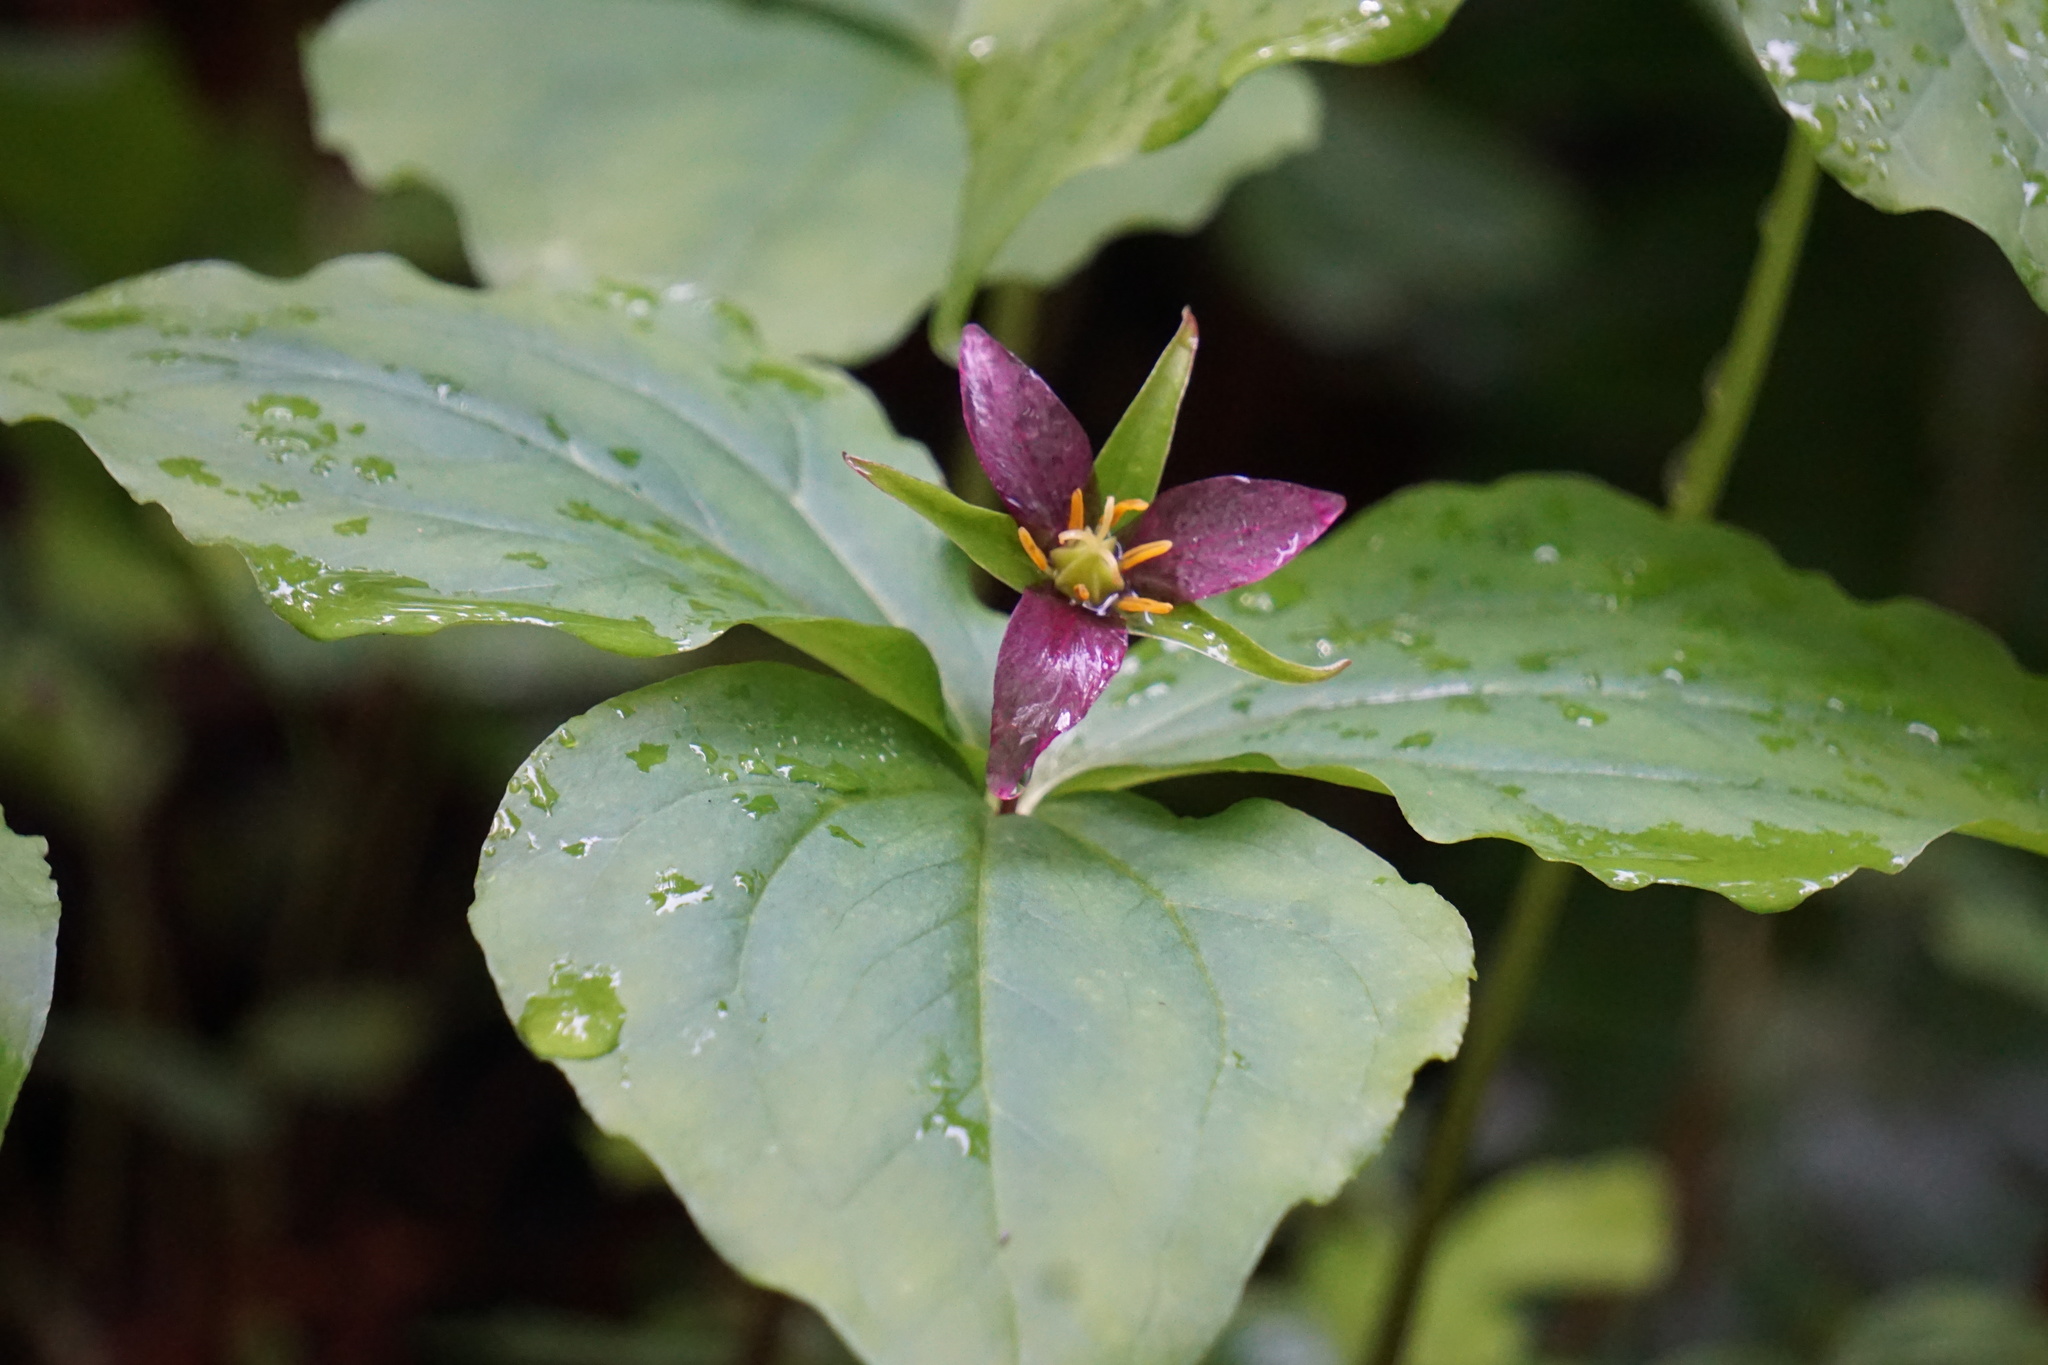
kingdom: Plantae
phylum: Tracheophyta
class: Liliopsida
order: Liliales
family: Melanthiaceae
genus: Trillium
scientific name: Trillium ovatum
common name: Pacific trillium
